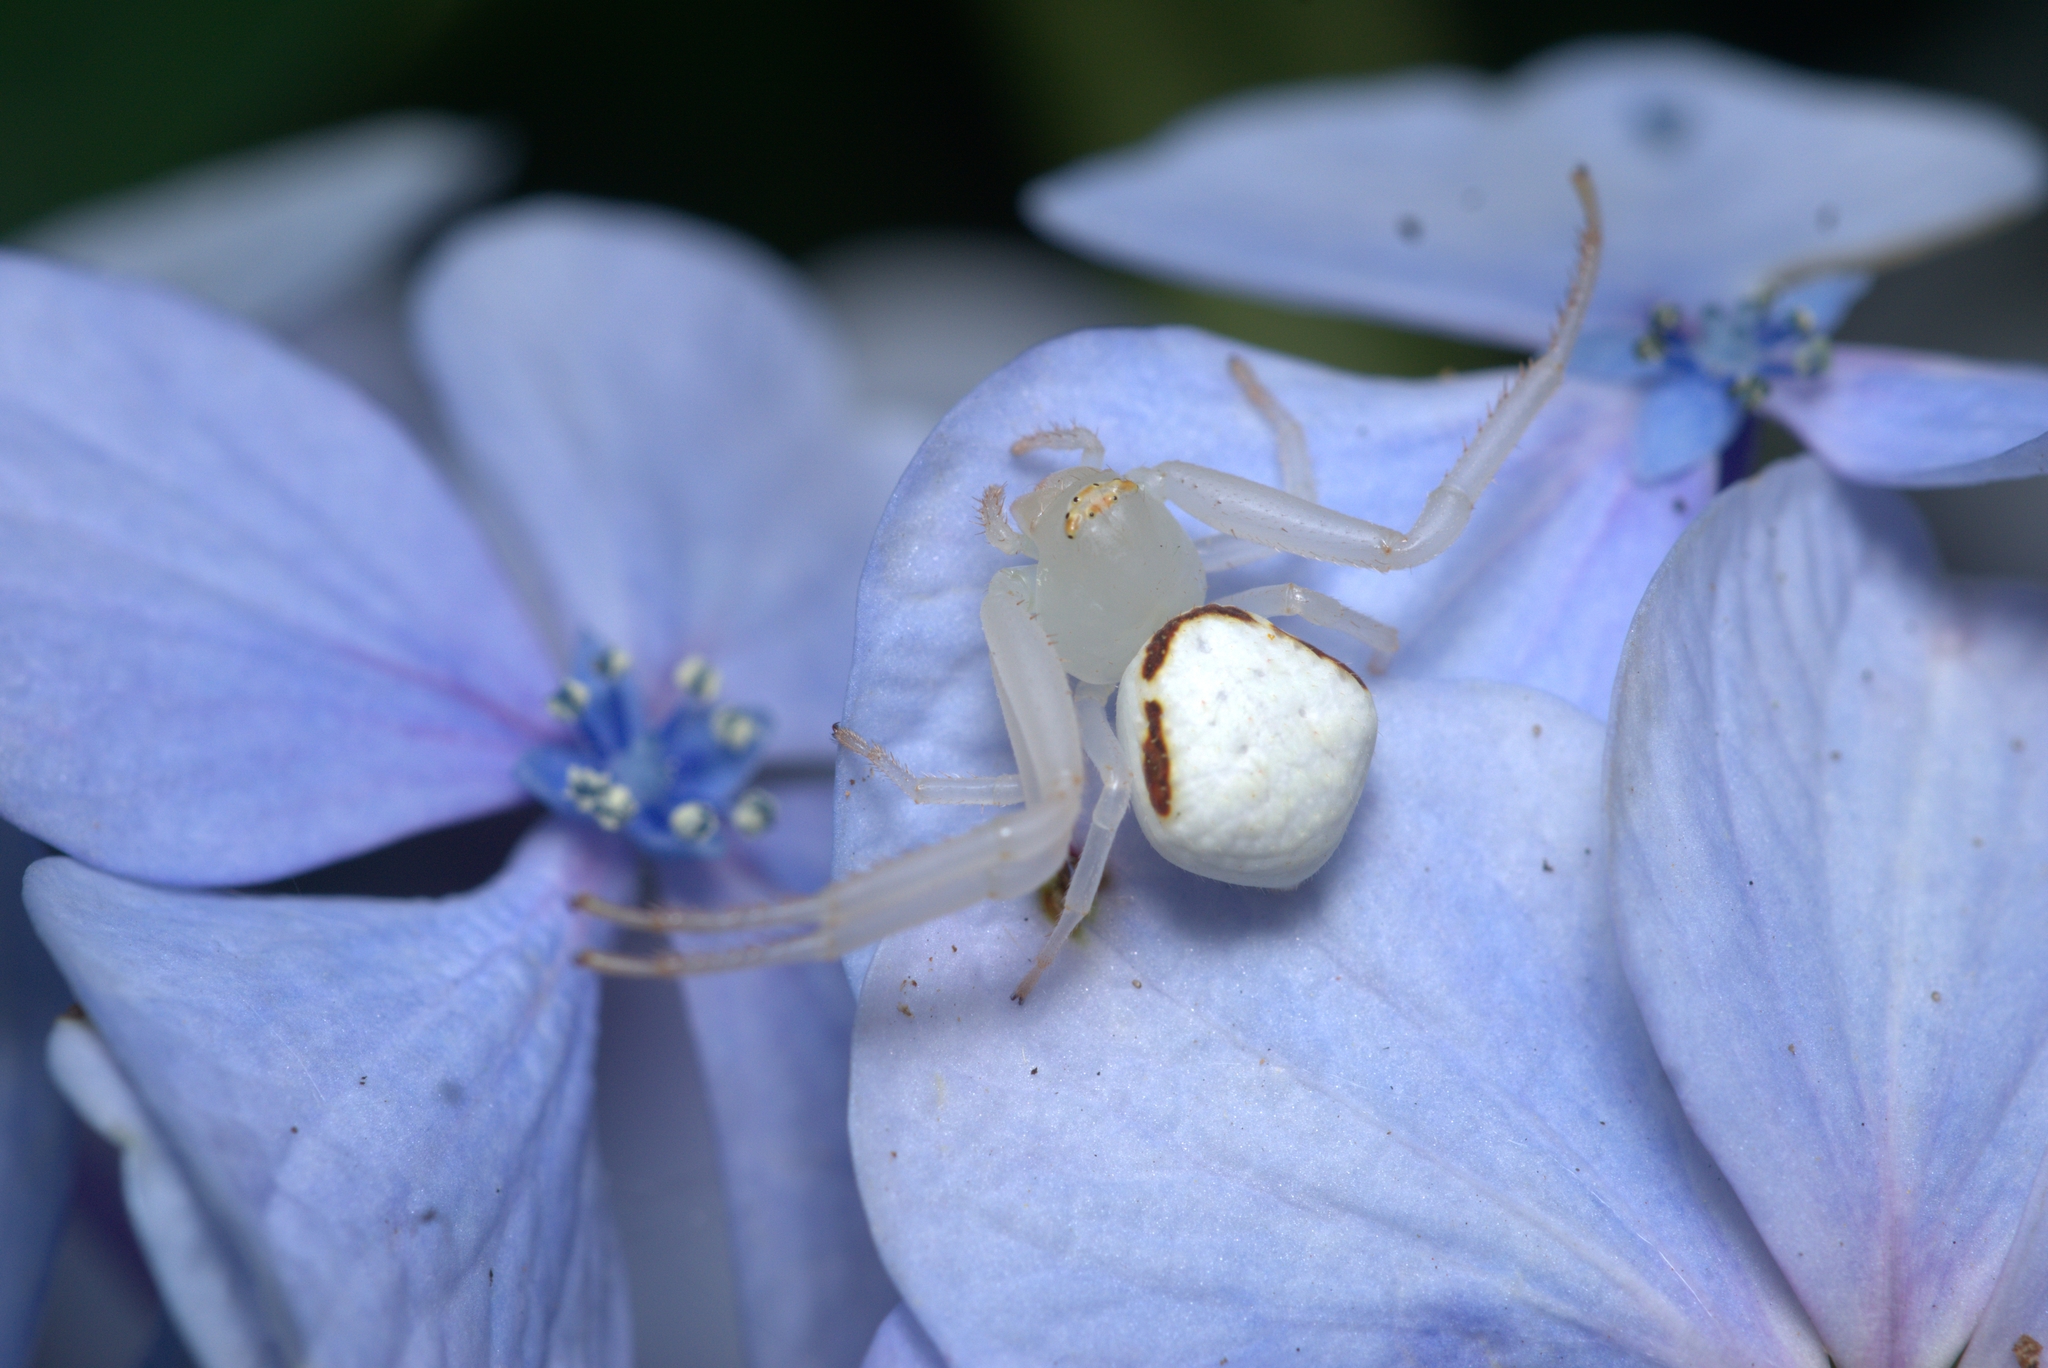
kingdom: Animalia
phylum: Arthropoda
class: Arachnida
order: Araneae
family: Thomisidae
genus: Misumenops
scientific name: Misumenops callinurus
